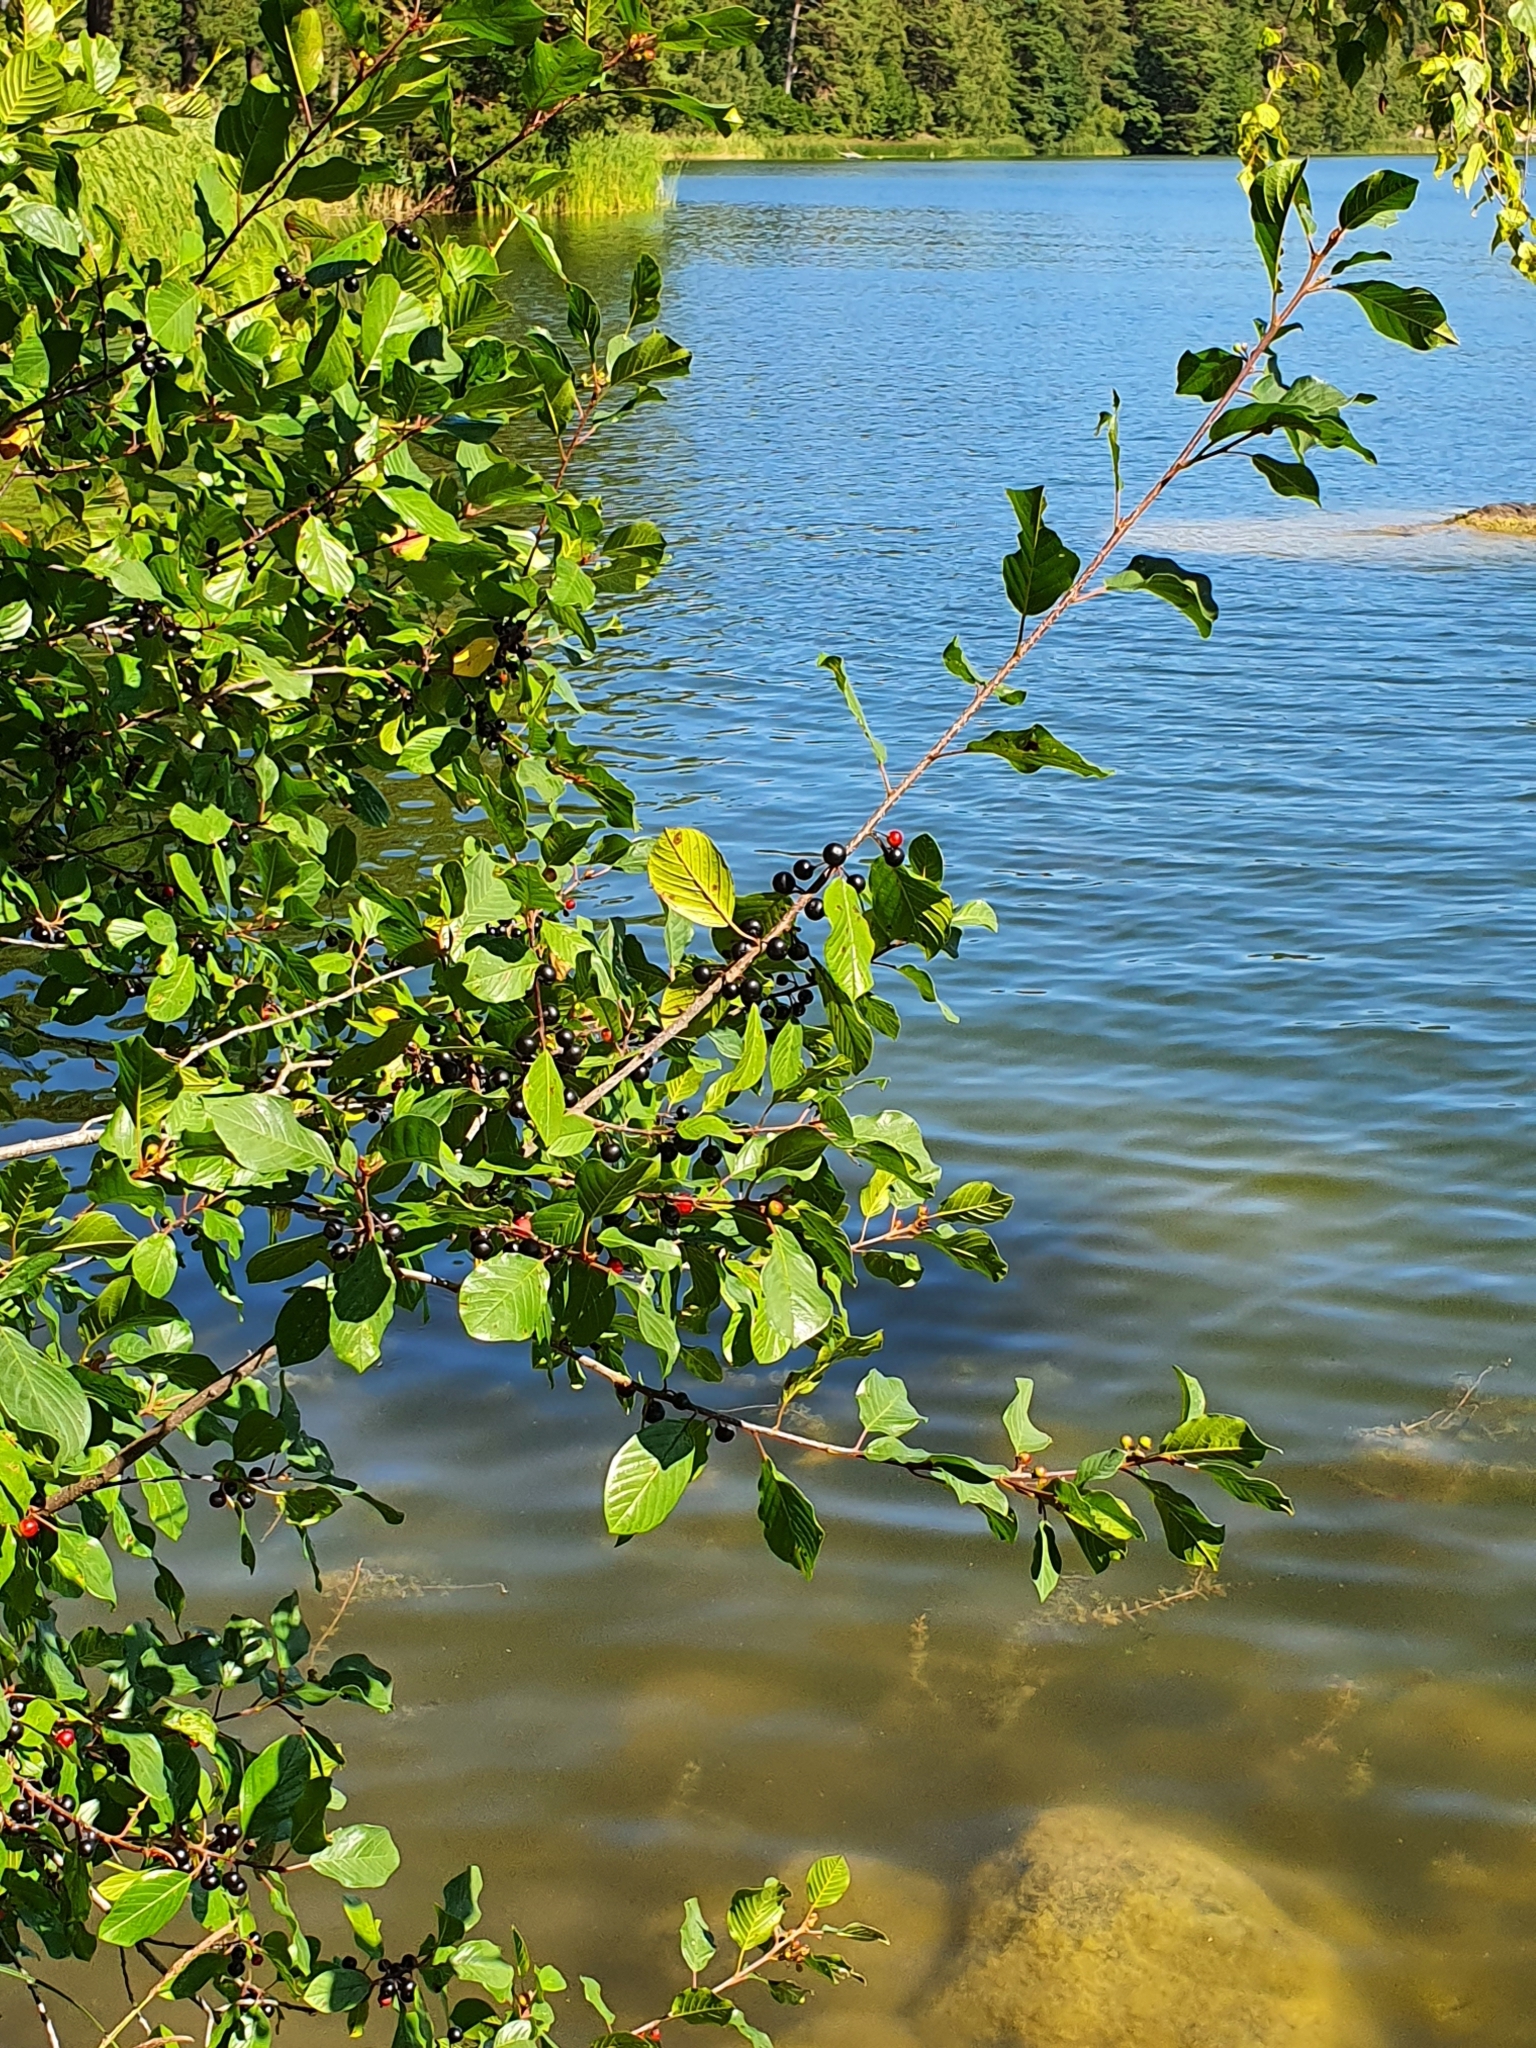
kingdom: Plantae
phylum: Tracheophyta
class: Magnoliopsida
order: Rosales
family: Rhamnaceae
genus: Frangula
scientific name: Frangula alnus
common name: Alder buckthorn
